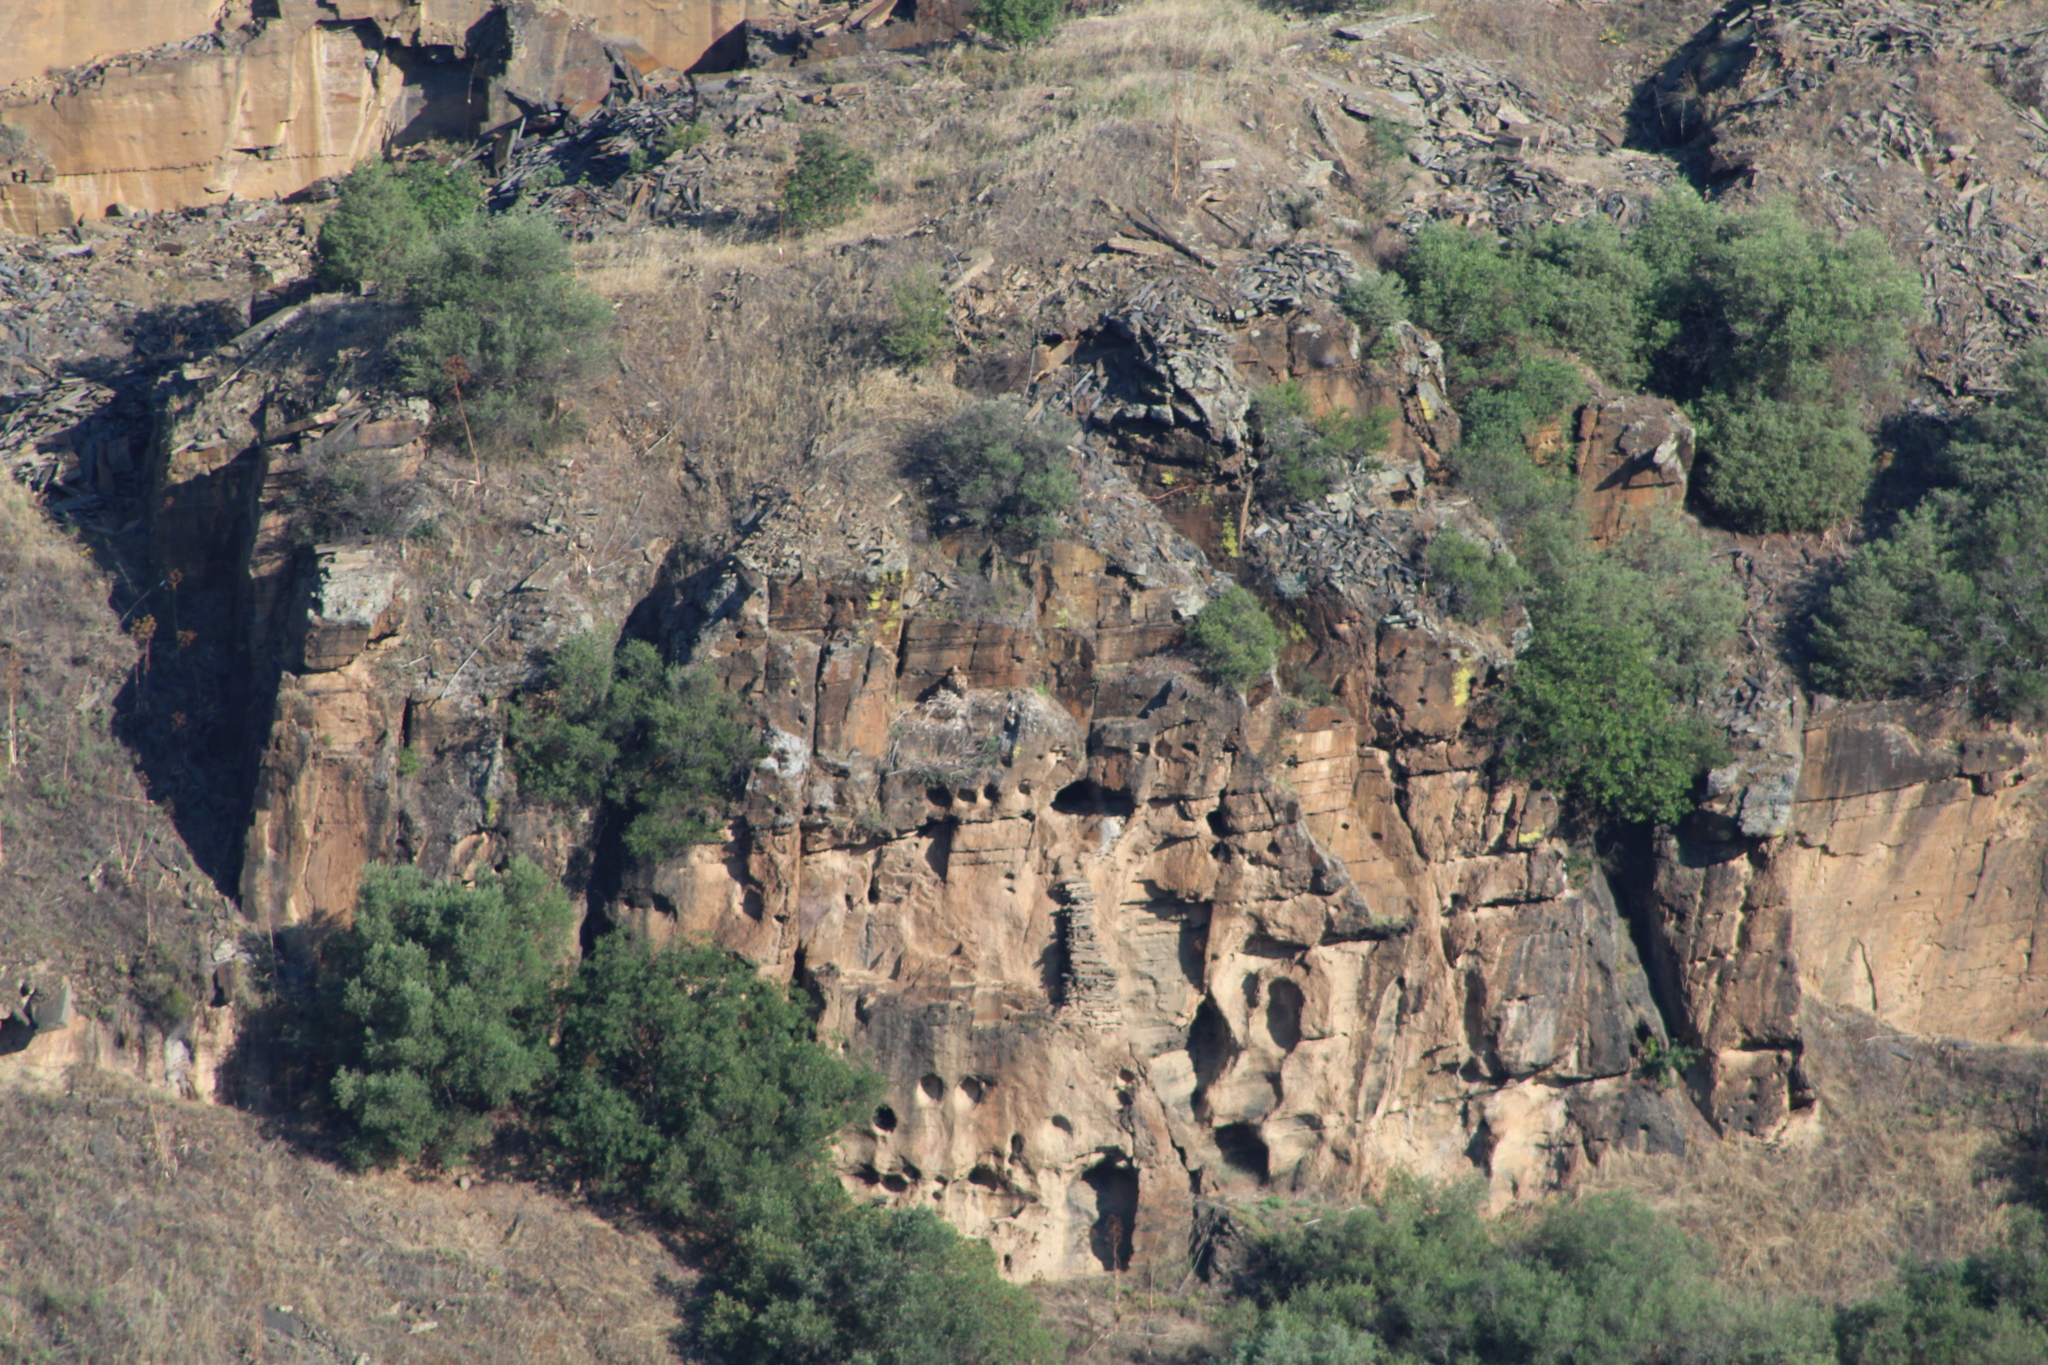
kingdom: Animalia
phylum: Chordata
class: Aves
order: Accipitriformes
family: Accipitridae
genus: Gyps
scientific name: Gyps fulvus
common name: Griffon vulture
